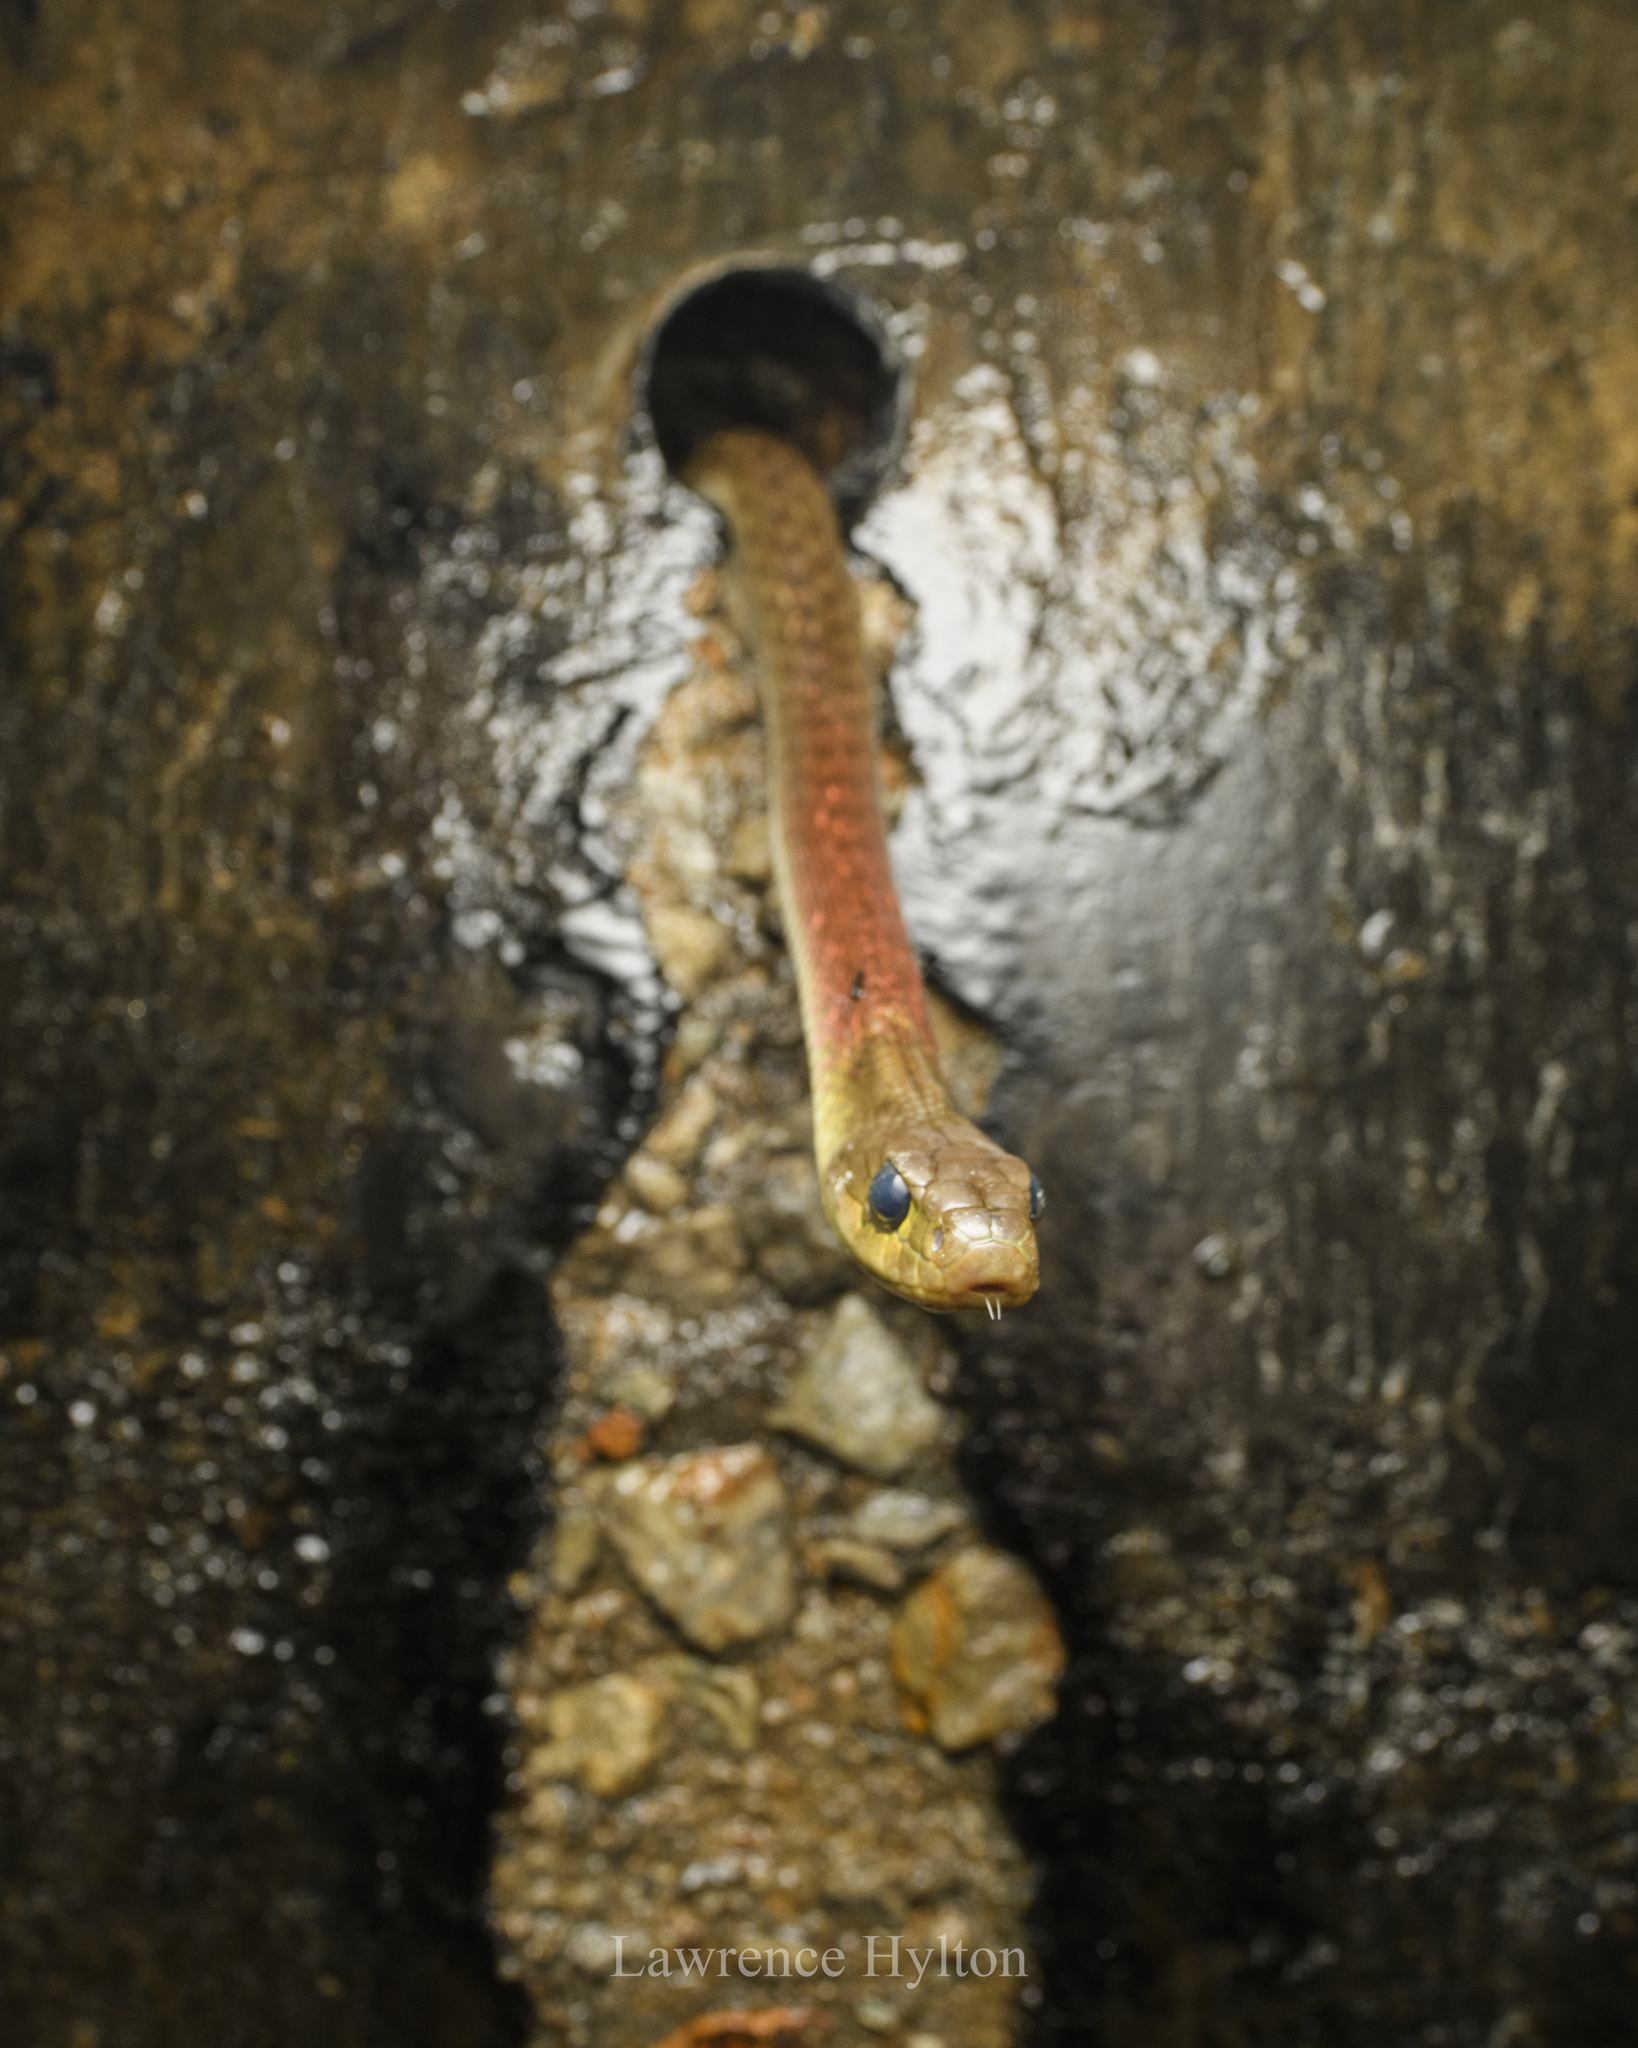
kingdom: Animalia
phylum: Chordata
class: Squamata
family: Colubridae
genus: Rhabdophis
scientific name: Rhabdophis helleri
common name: Heller’s red-necked keelback
